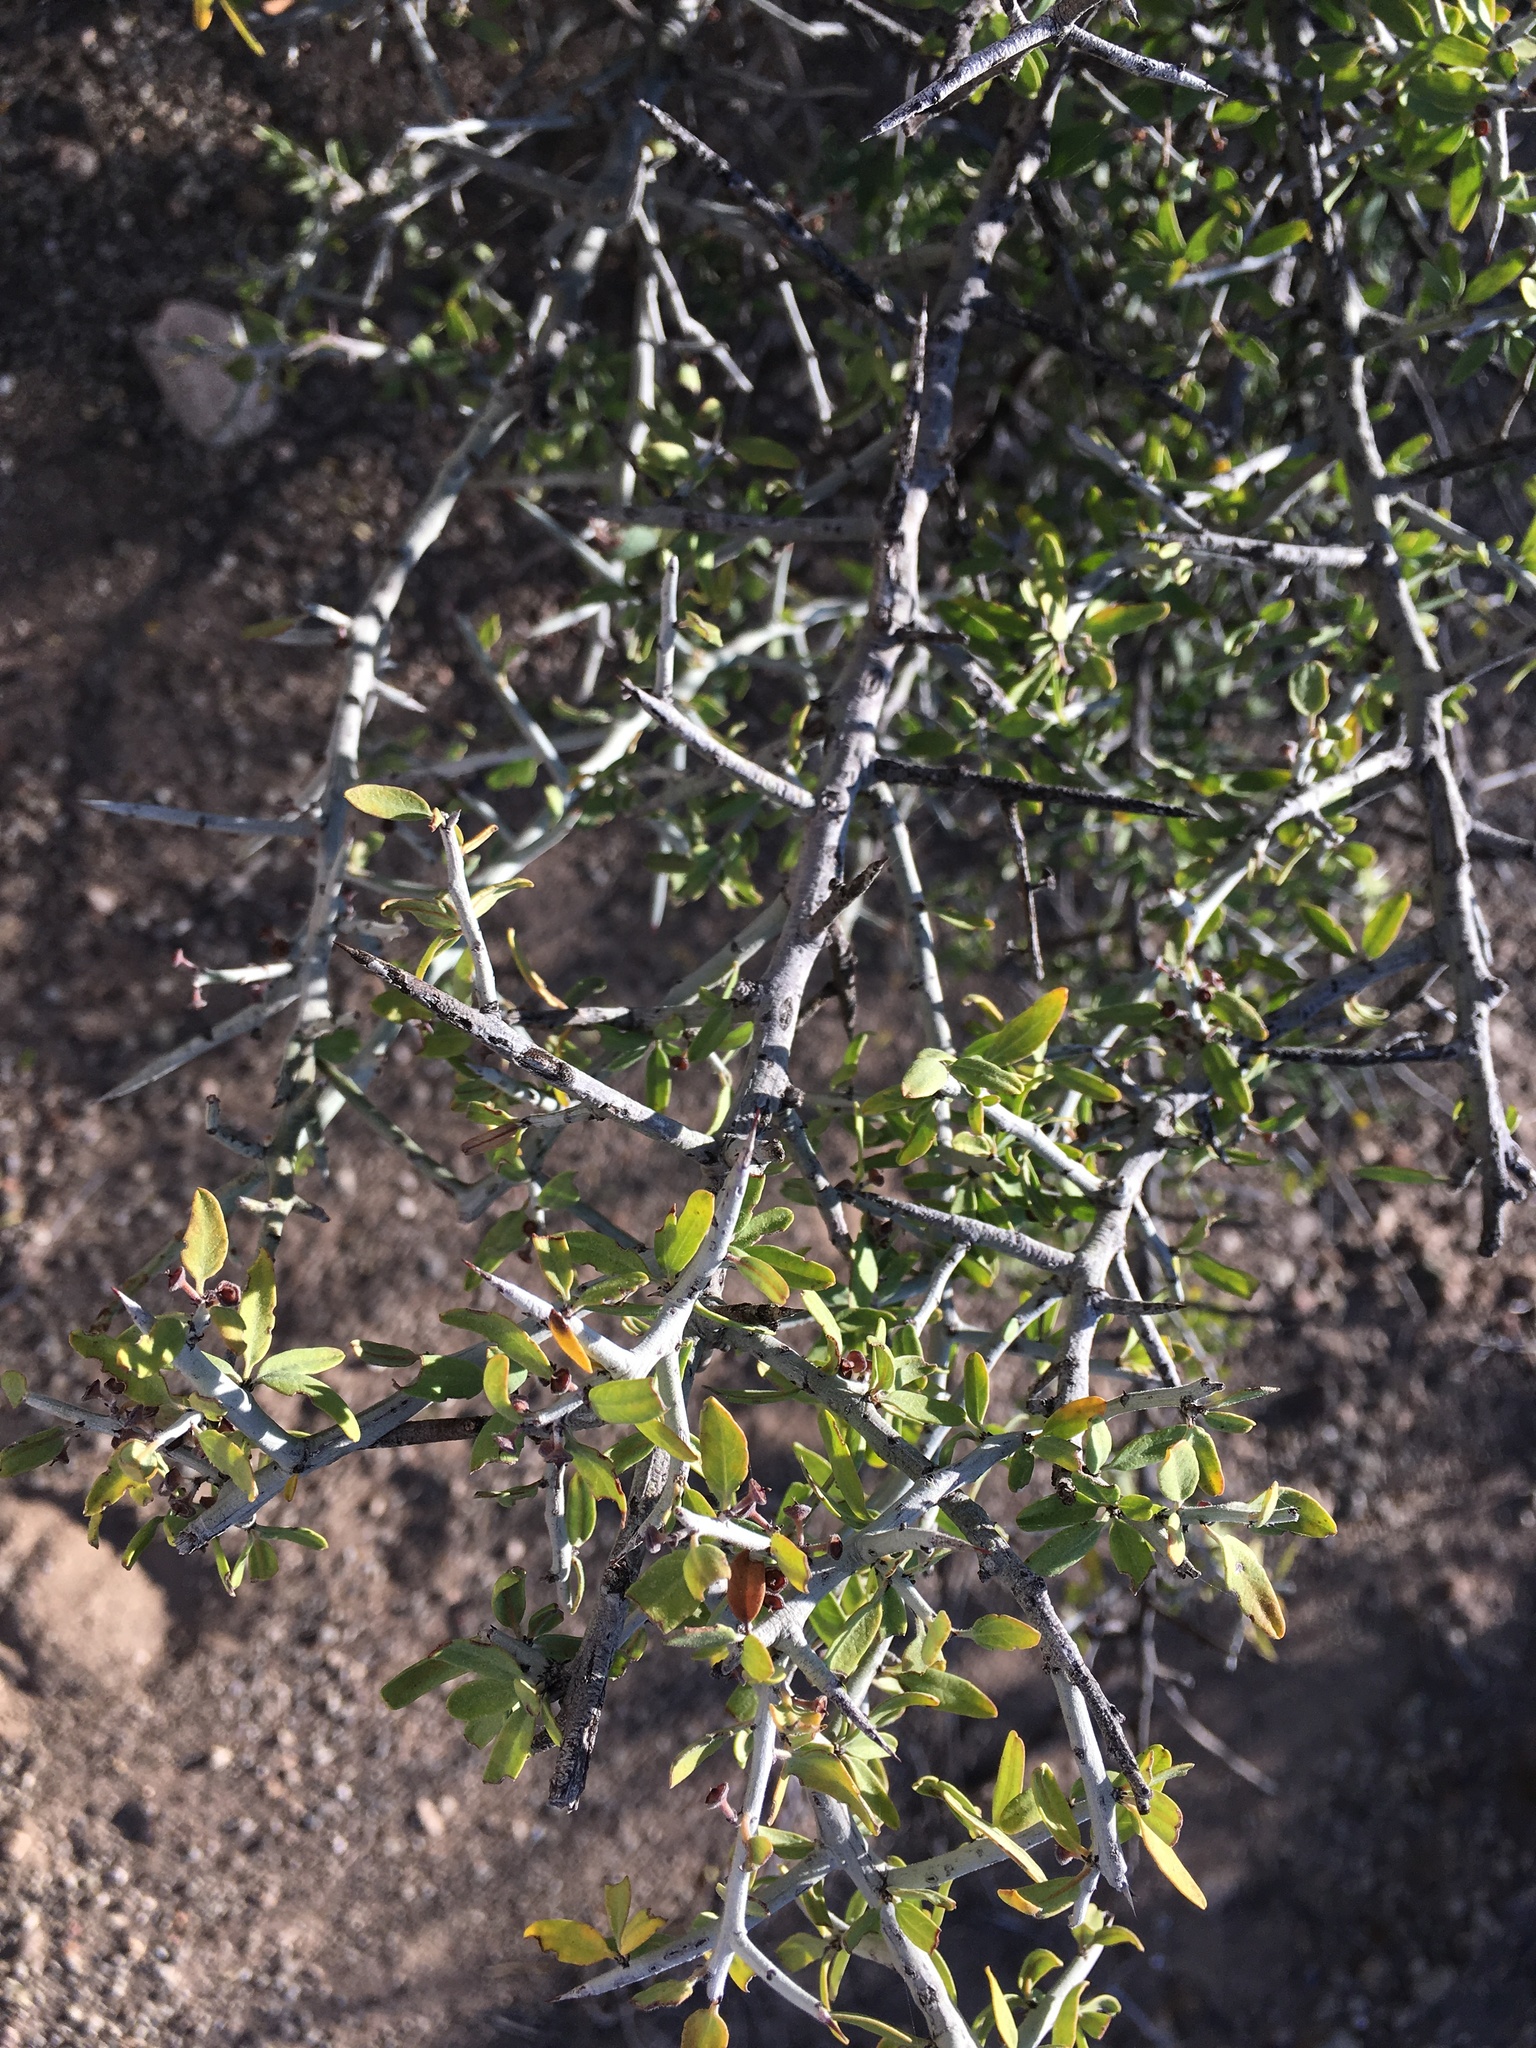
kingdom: Plantae
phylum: Tracheophyta
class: Magnoliopsida
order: Rosales
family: Rhamnaceae
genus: Sarcomphalus
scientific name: Sarcomphalus obtusifolius
